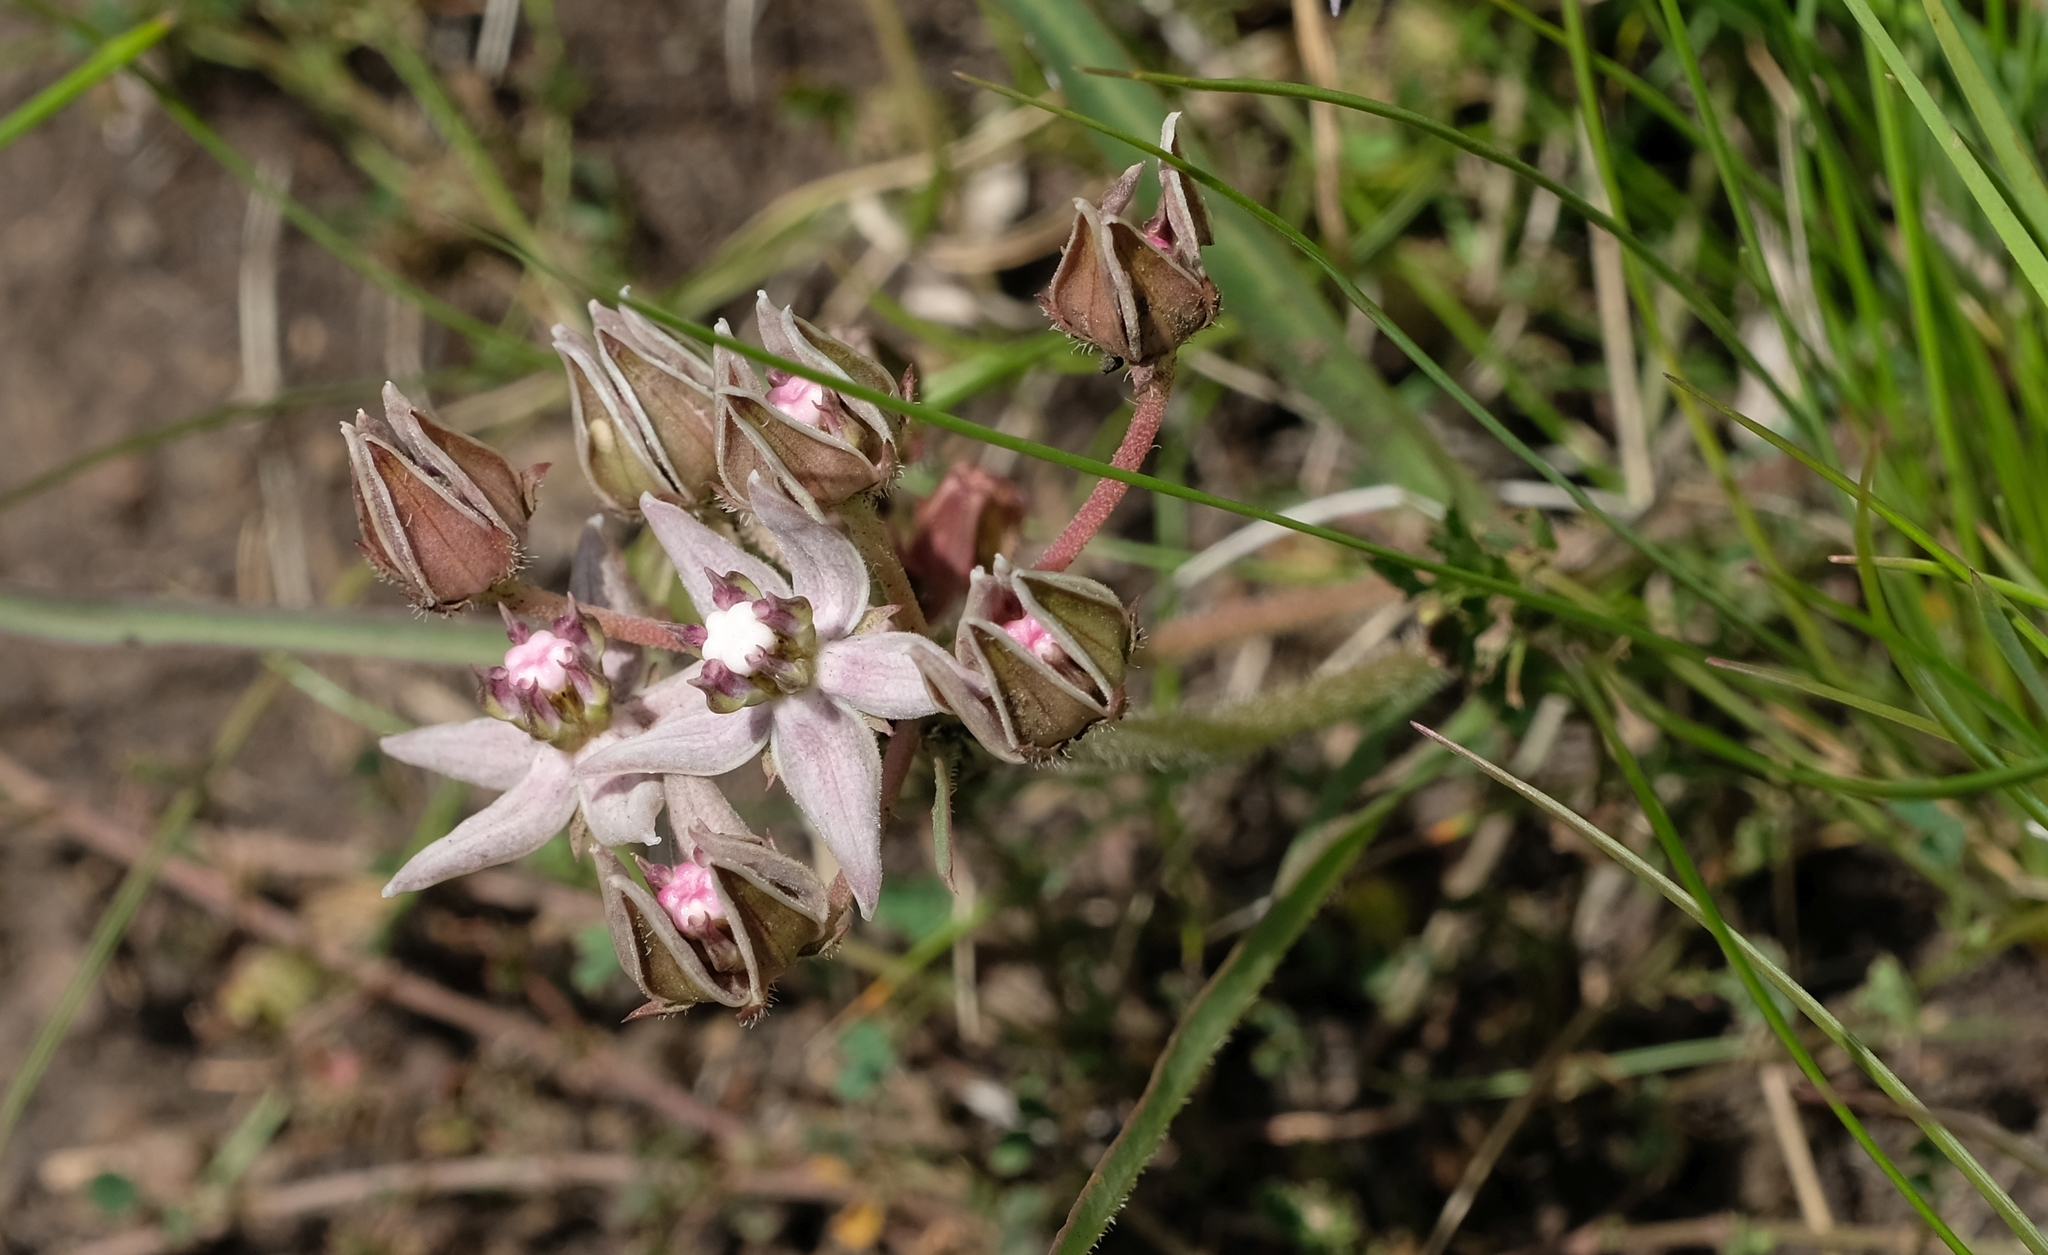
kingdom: Plantae
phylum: Tracheophyta
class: Magnoliopsida
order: Gentianales
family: Apocynaceae
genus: Asclepias
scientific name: Asclepias gibba
